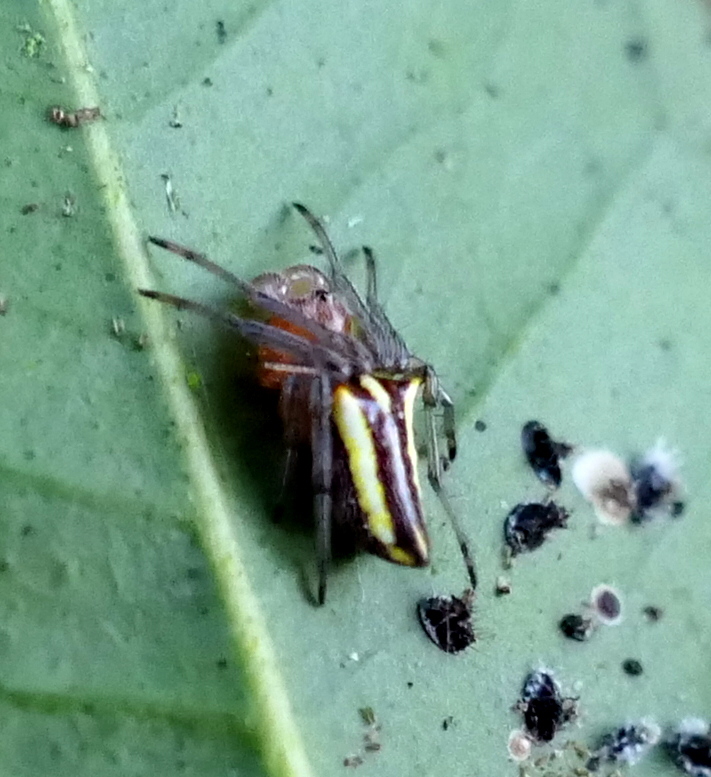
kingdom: Animalia
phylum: Arthropoda
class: Arachnida
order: Araneae
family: Araneidae
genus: Alpaida
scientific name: Alpaida bicornuta
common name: Orb weavers
